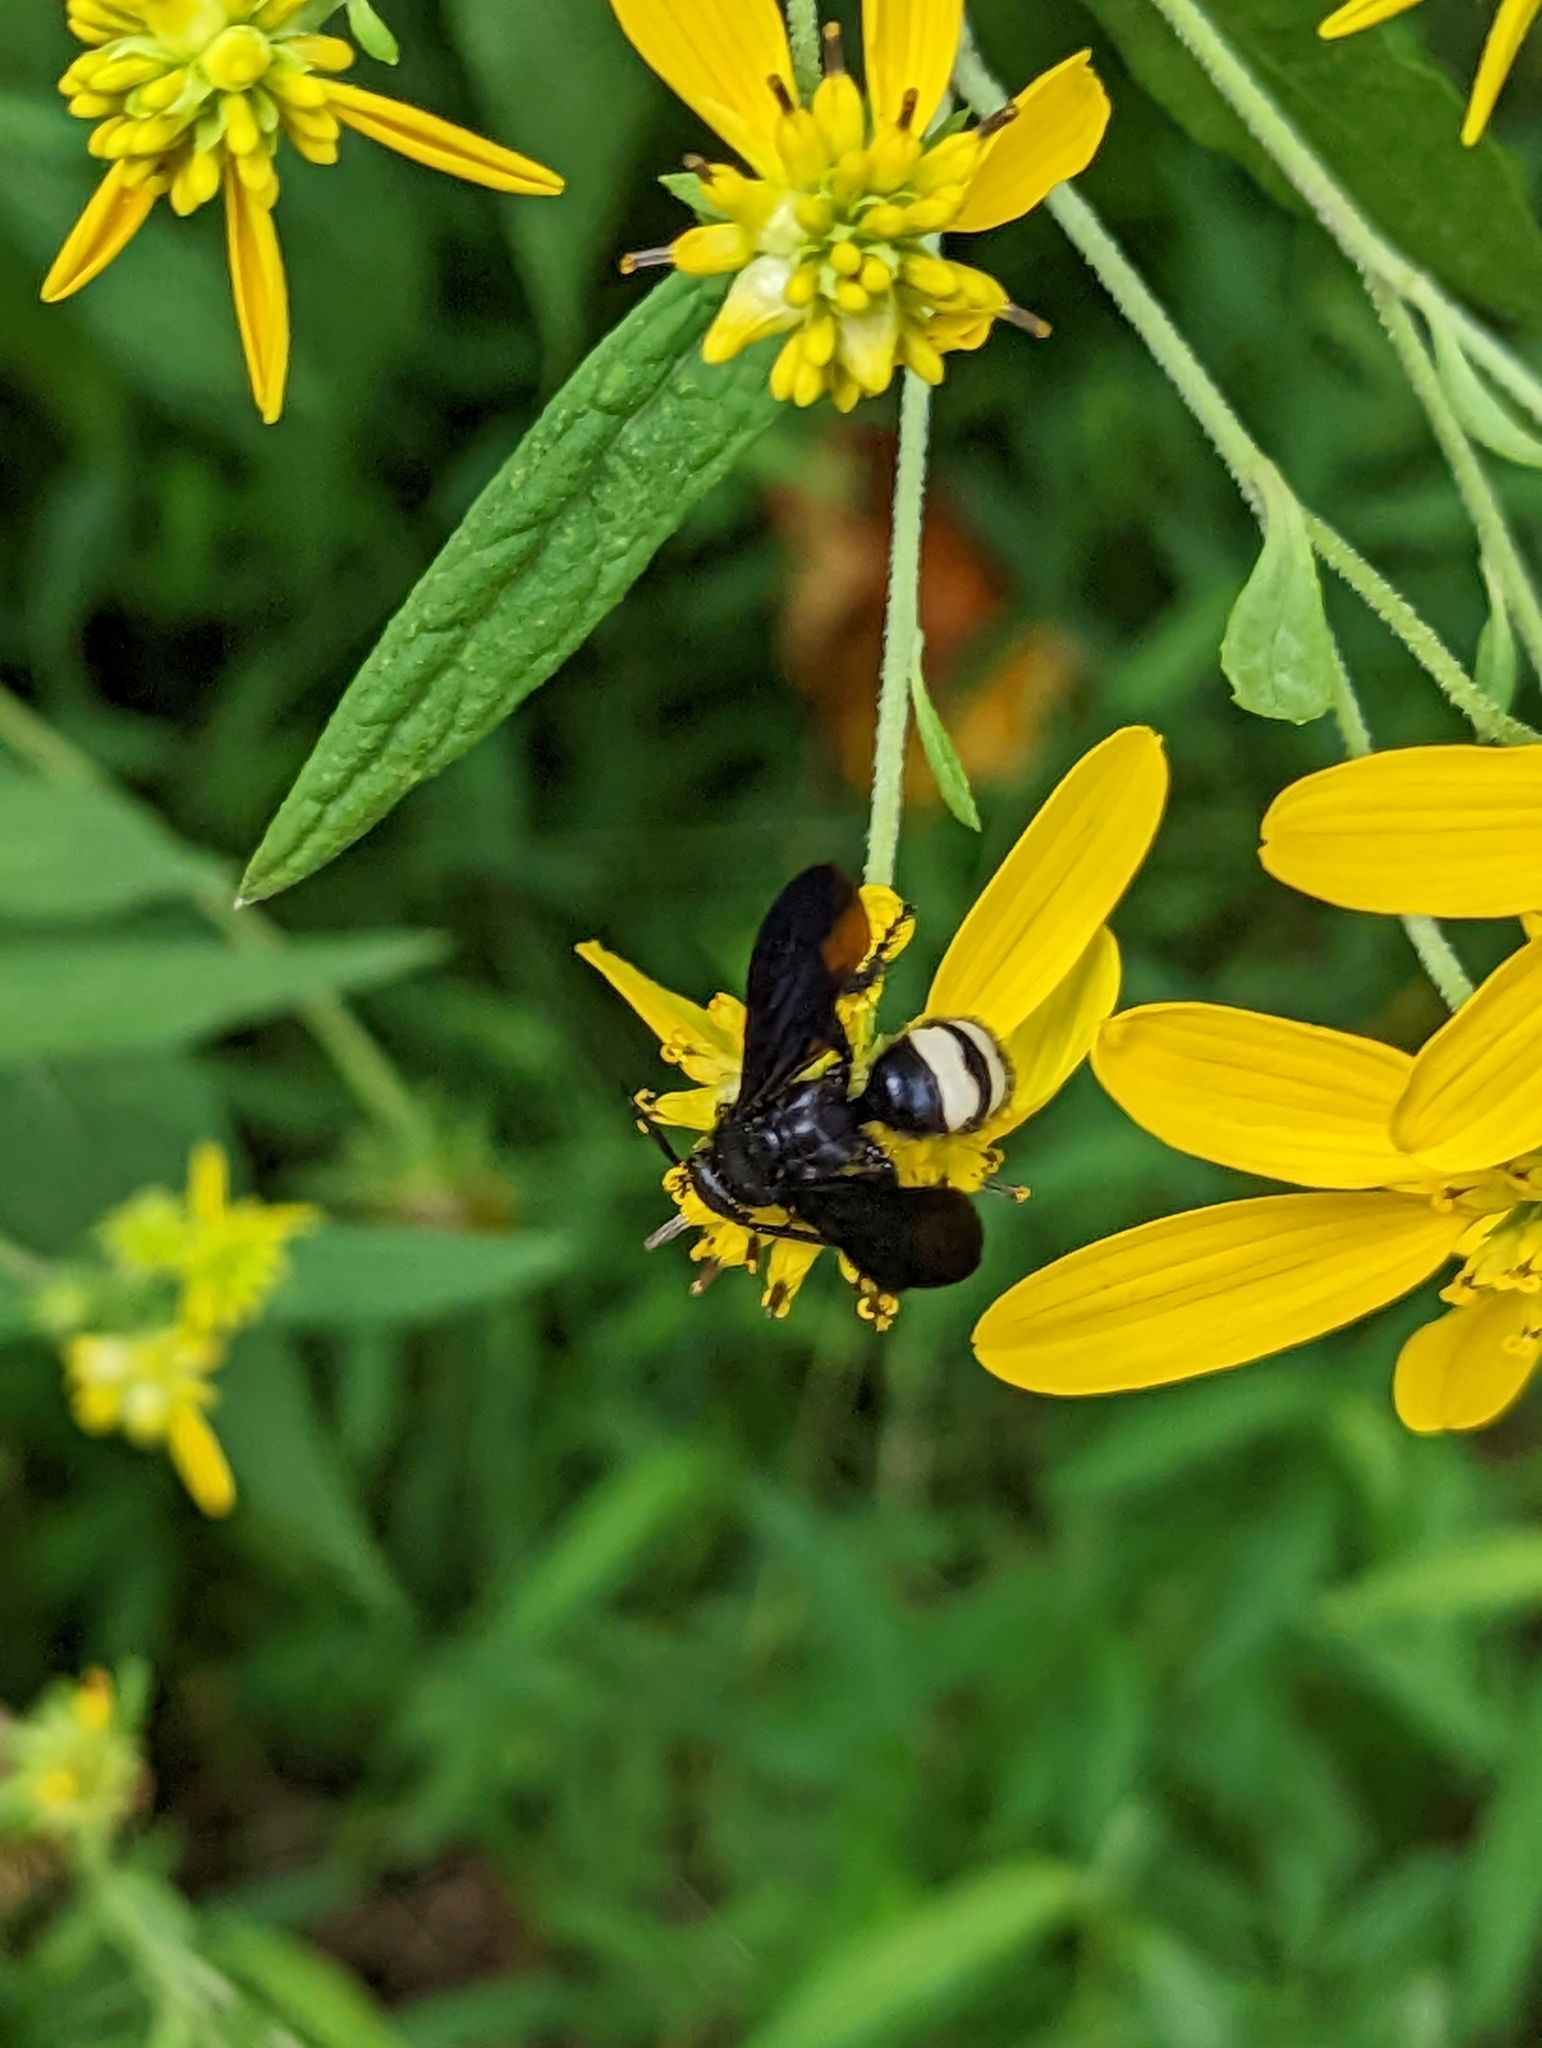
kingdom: Animalia
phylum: Arthropoda
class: Insecta
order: Hymenoptera
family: Scoliidae
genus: Scolia
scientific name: Scolia bicincta
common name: Double-banded scoliid wasp
